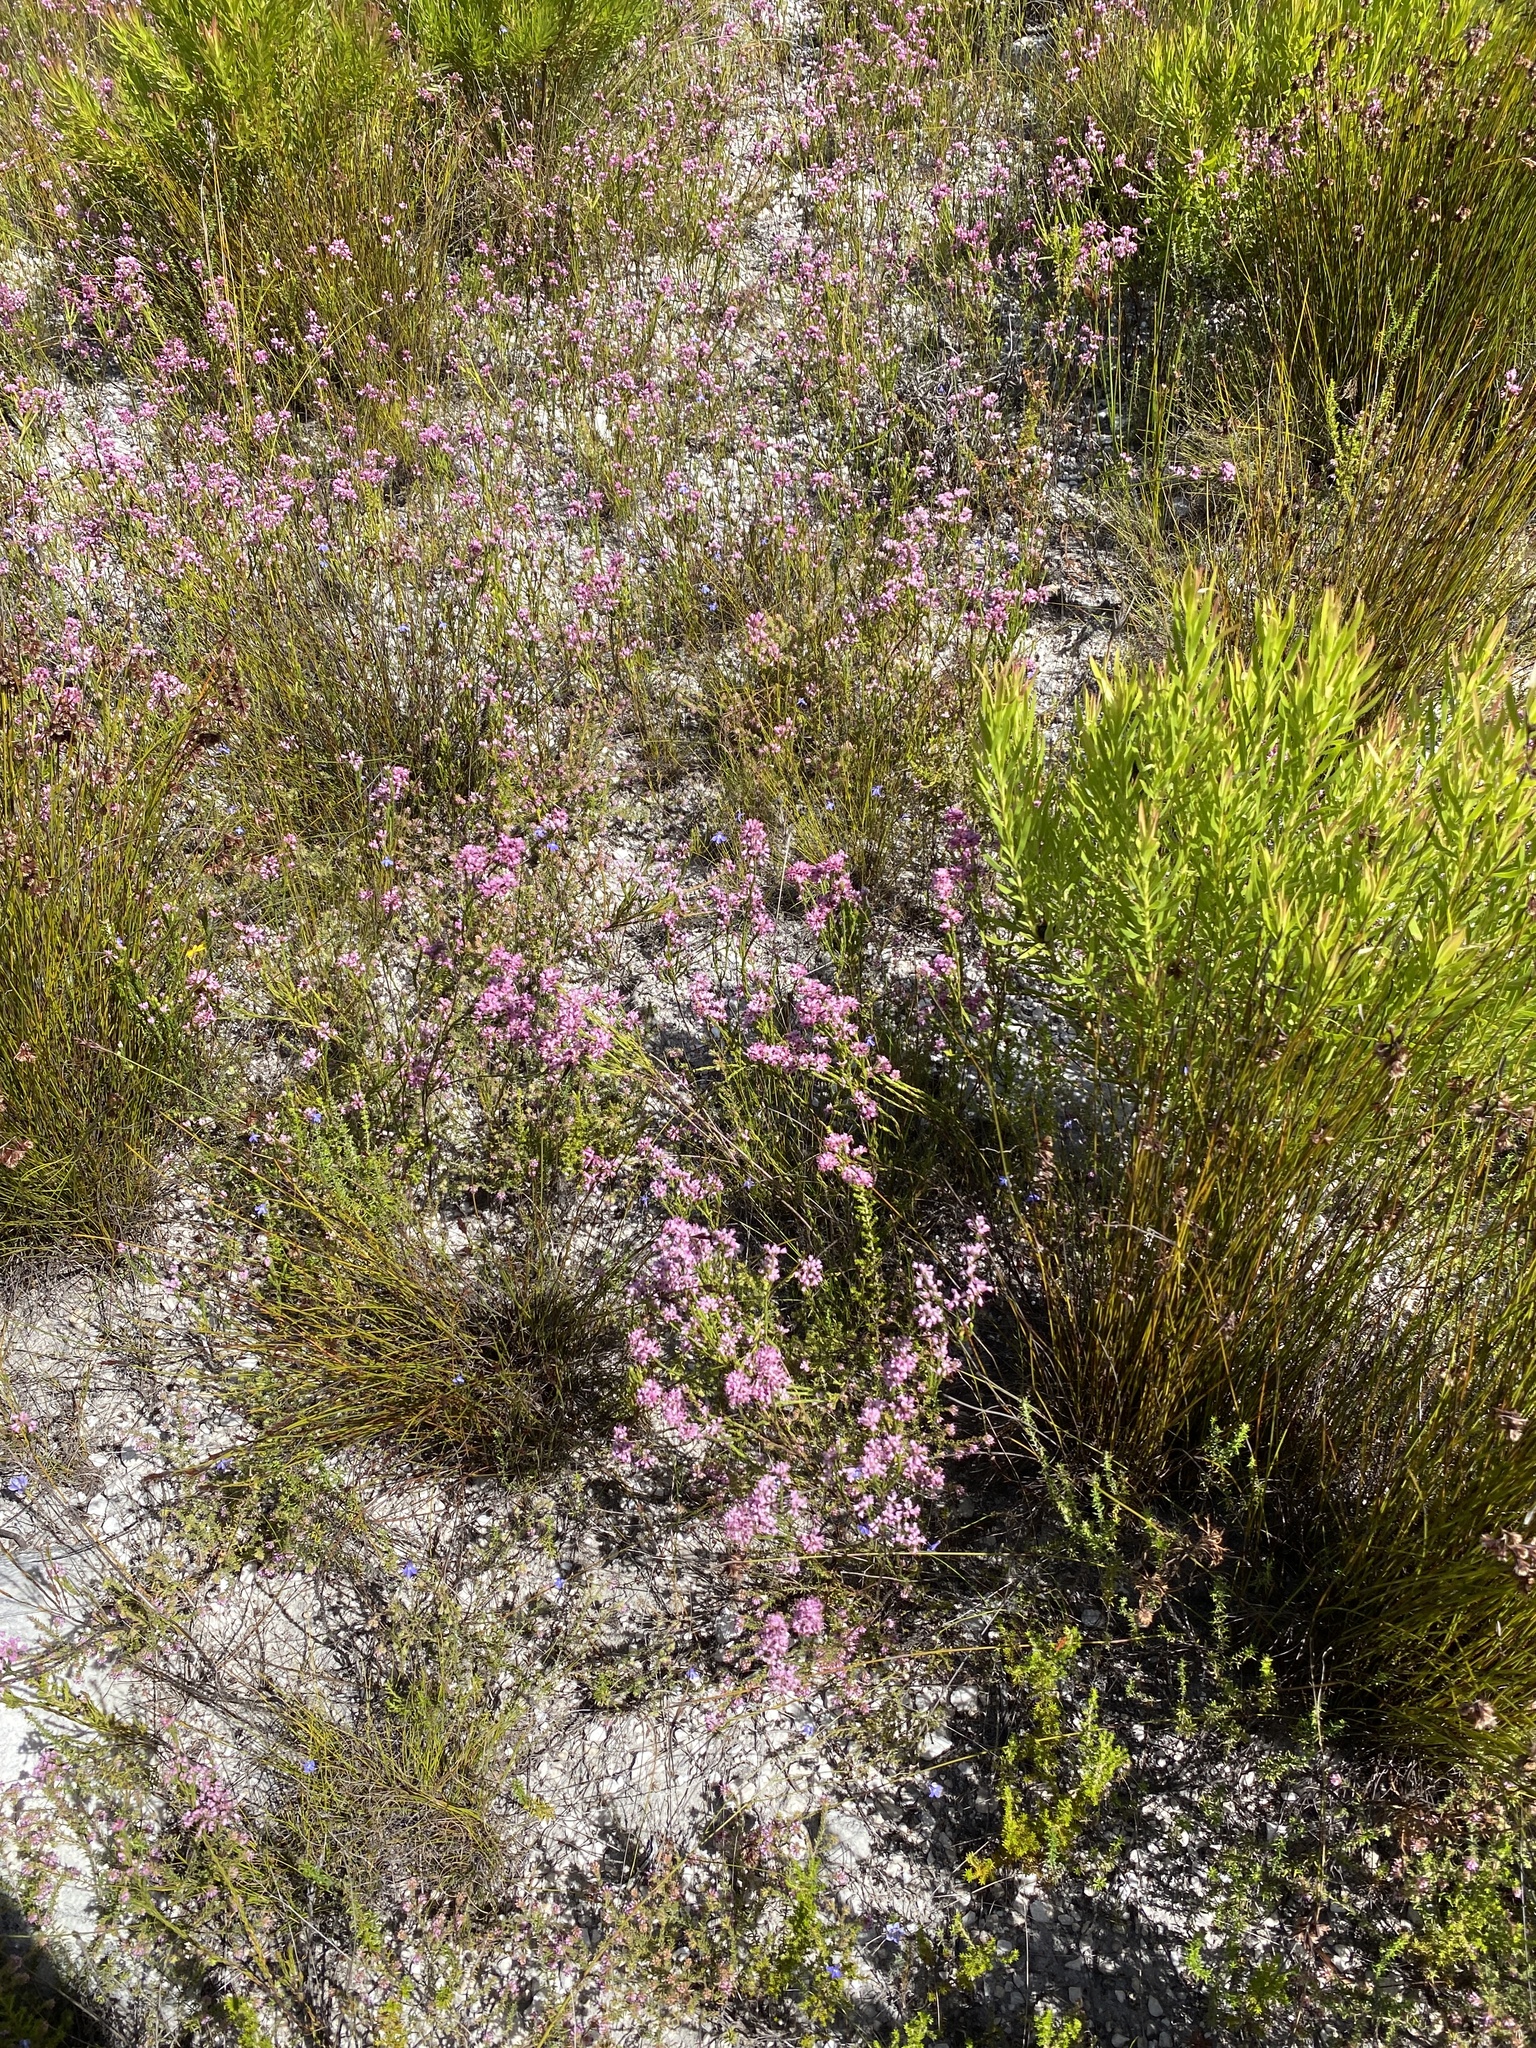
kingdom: Plantae
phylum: Tracheophyta
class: Magnoliopsida
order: Ericales
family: Ericaceae
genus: Erica
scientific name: Erica corifolia
